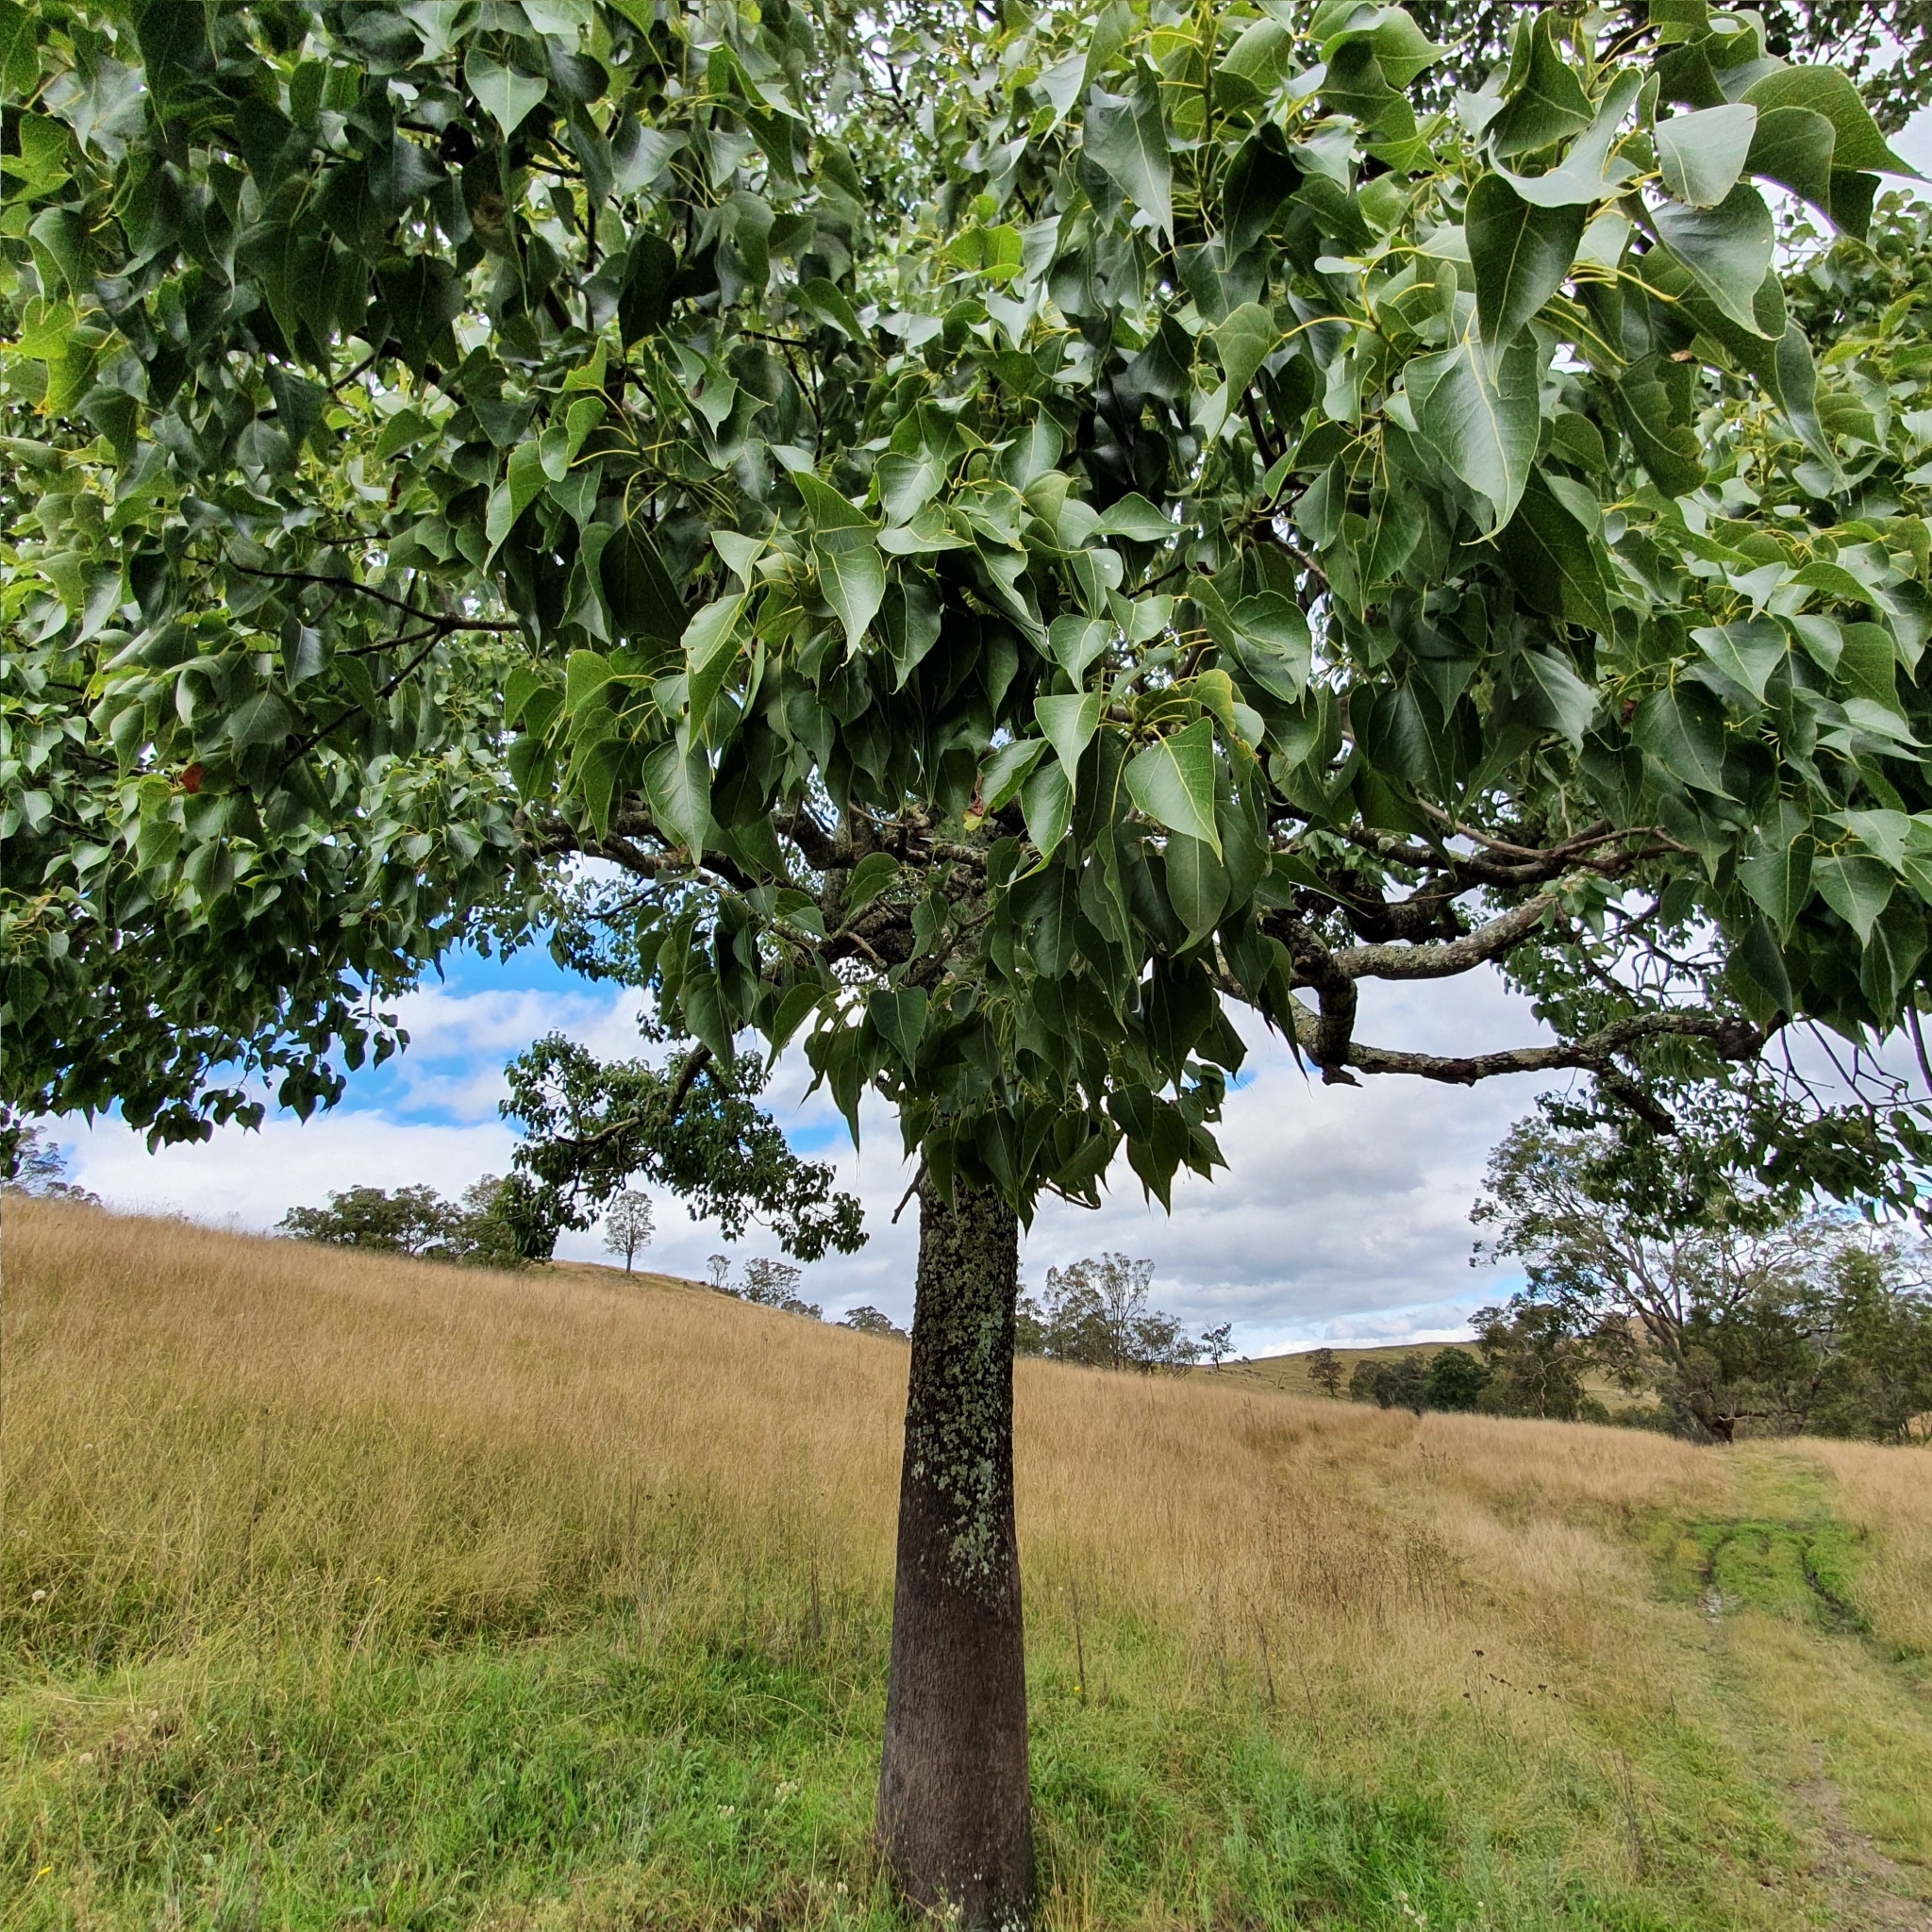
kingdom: Plantae
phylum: Tracheophyta
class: Magnoliopsida
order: Malvales
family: Malvaceae
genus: Brachychiton
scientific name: Brachychiton populneus
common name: Kurrajong
